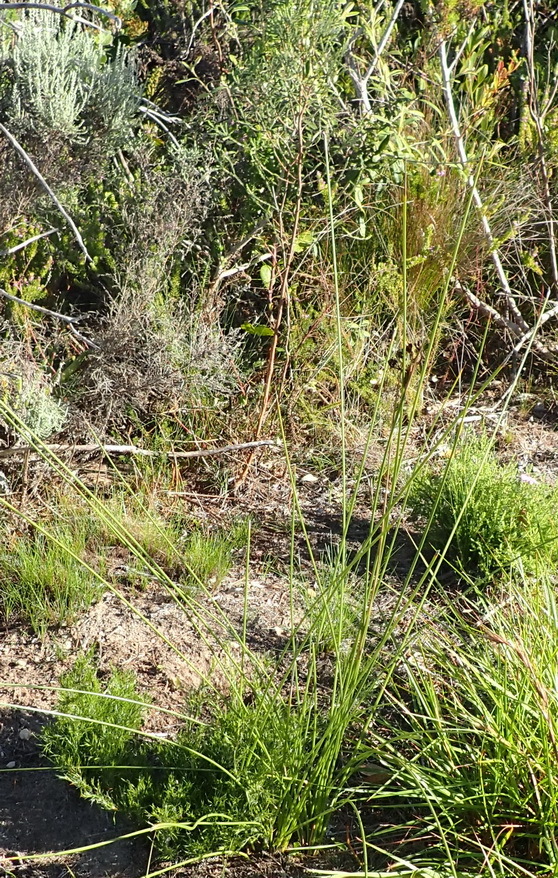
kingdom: Plantae
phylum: Tracheophyta
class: Liliopsida
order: Asparagales
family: Iridaceae
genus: Bobartia
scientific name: Bobartia aphylla
